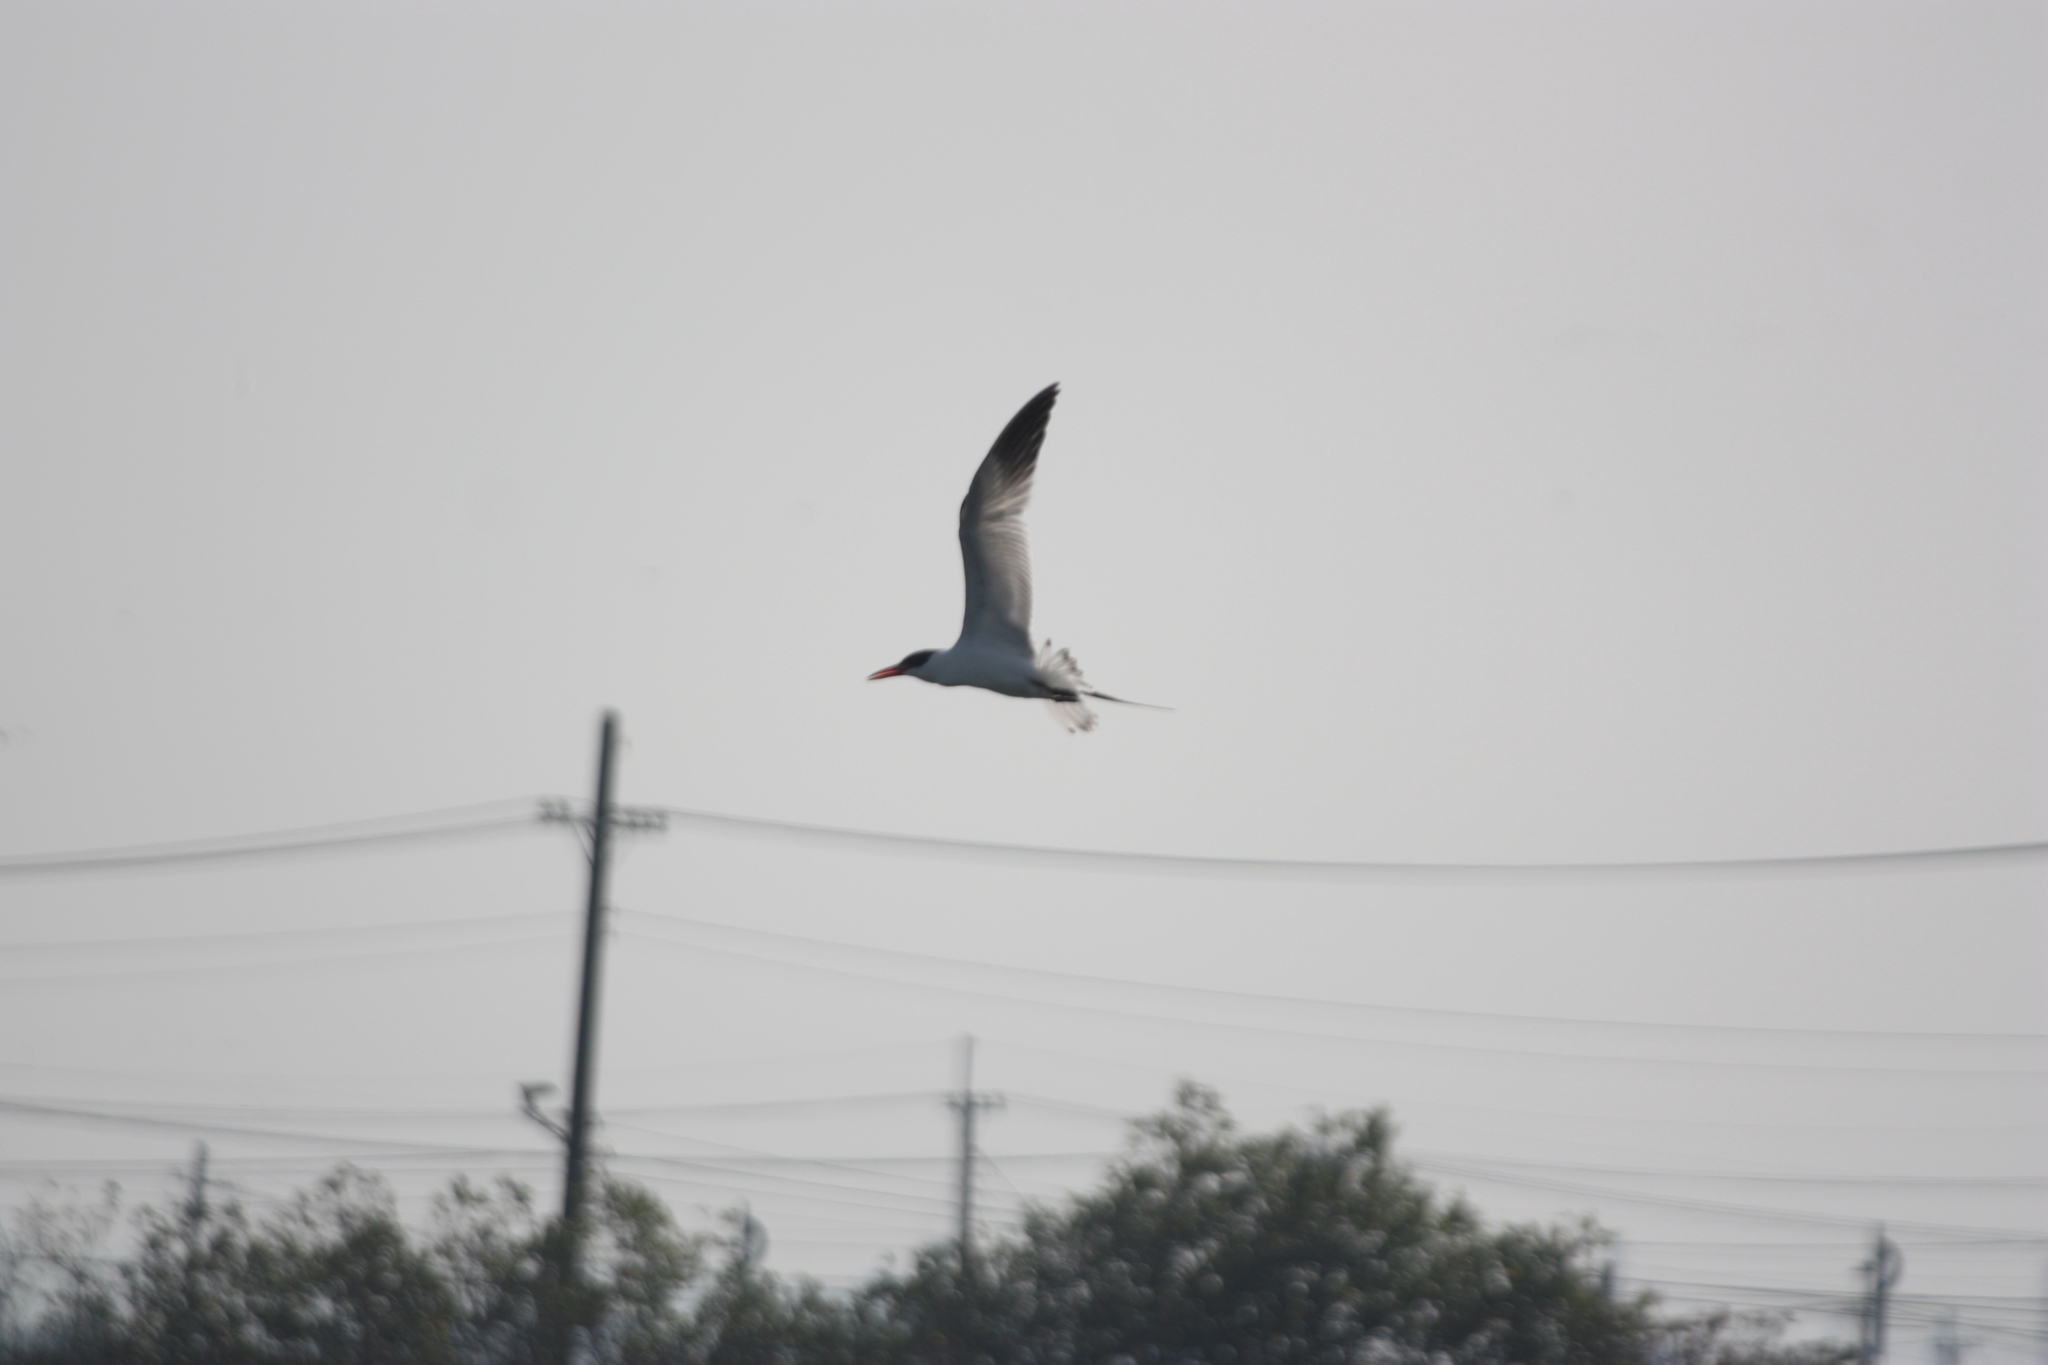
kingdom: Animalia
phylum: Chordata
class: Aves
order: Charadriiformes
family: Laridae
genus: Hydroprogne
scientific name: Hydroprogne caspia
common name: Caspian tern
